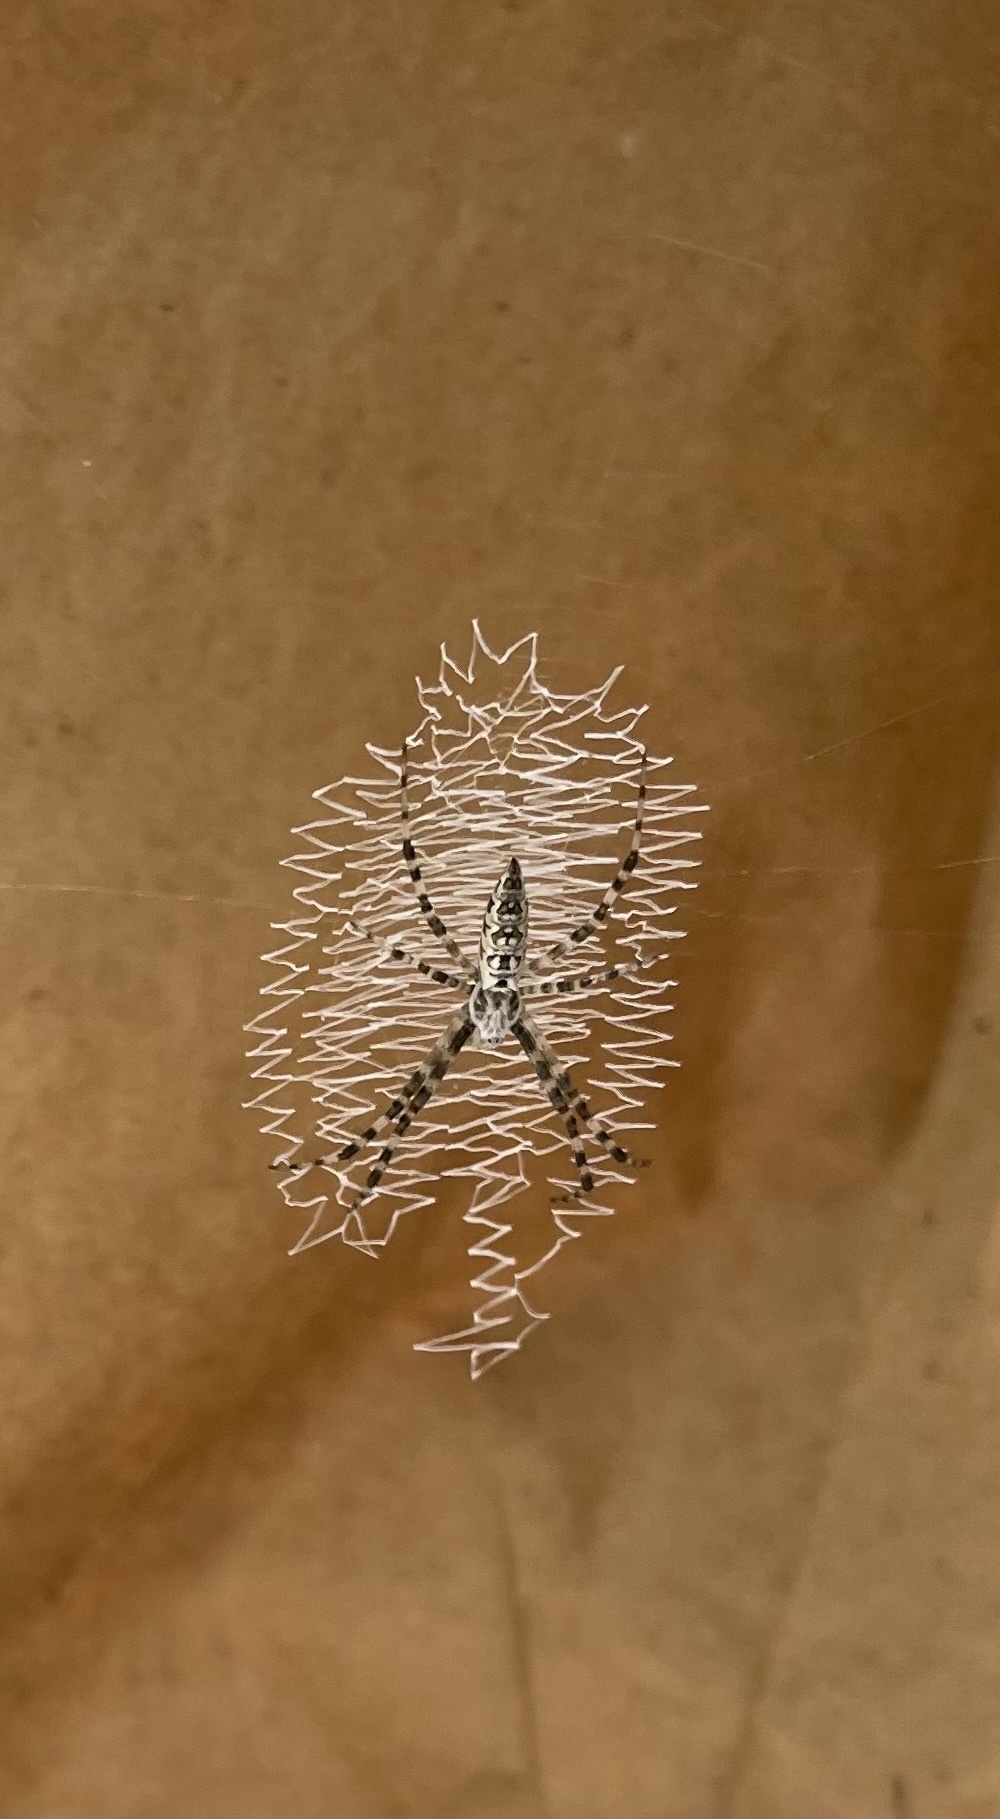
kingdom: Animalia
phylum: Arthropoda
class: Arachnida
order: Araneae
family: Araneidae
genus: Argiope
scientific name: Argiope aurantia
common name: Orb weavers
